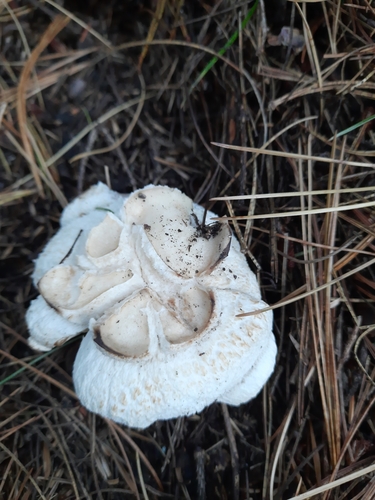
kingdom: Fungi
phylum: Basidiomycota
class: Agaricomycetes
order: Russulales
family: Russulaceae
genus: Russula
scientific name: Russula
